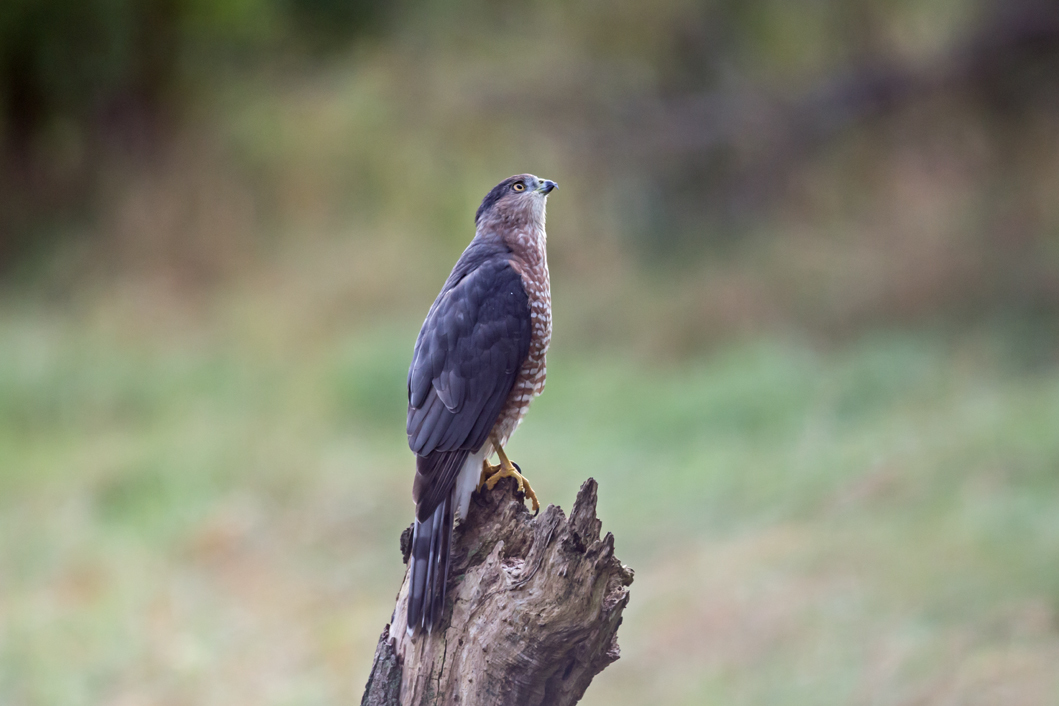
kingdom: Animalia
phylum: Chordata
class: Aves
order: Accipitriformes
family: Accipitridae
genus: Accipiter
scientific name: Accipiter cooperii
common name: Cooper's hawk
